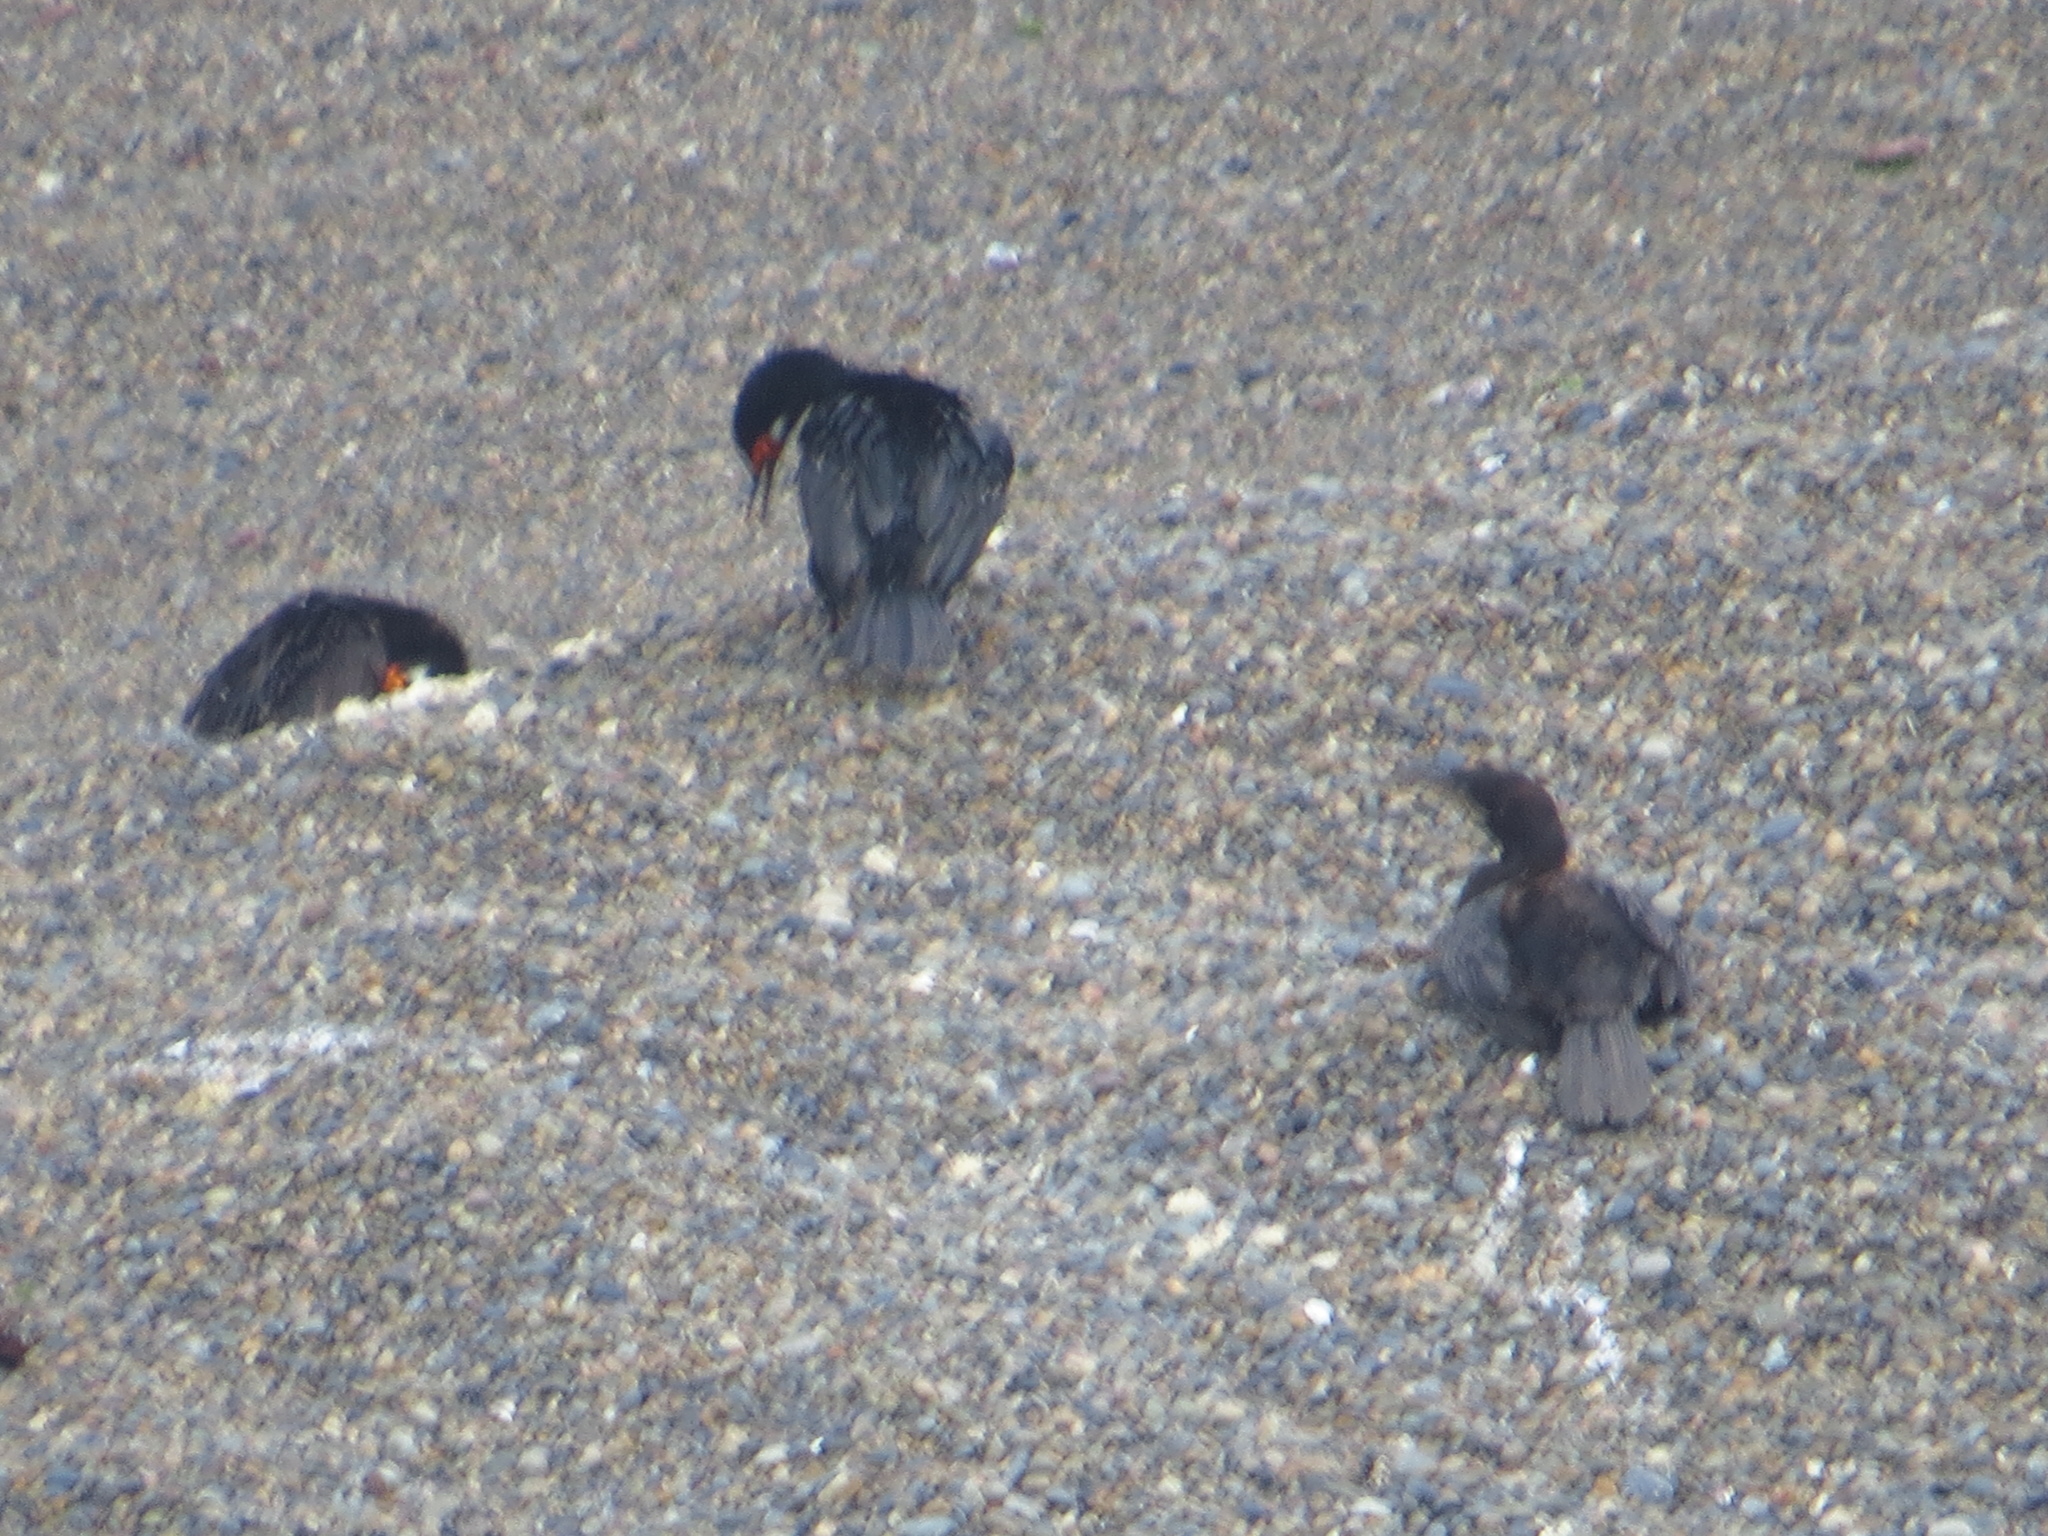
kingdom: Animalia
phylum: Chordata
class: Aves
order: Suliformes
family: Phalacrocoracidae
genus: Phalacrocorax
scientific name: Phalacrocorax magellanicus
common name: Rock shag
